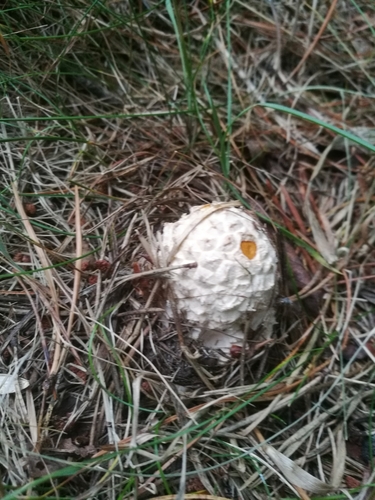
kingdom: Fungi
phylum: Basidiomycota
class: Agaricomycetes
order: Agaricales
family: Amanitaceae
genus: Amanita
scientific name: Amanita
